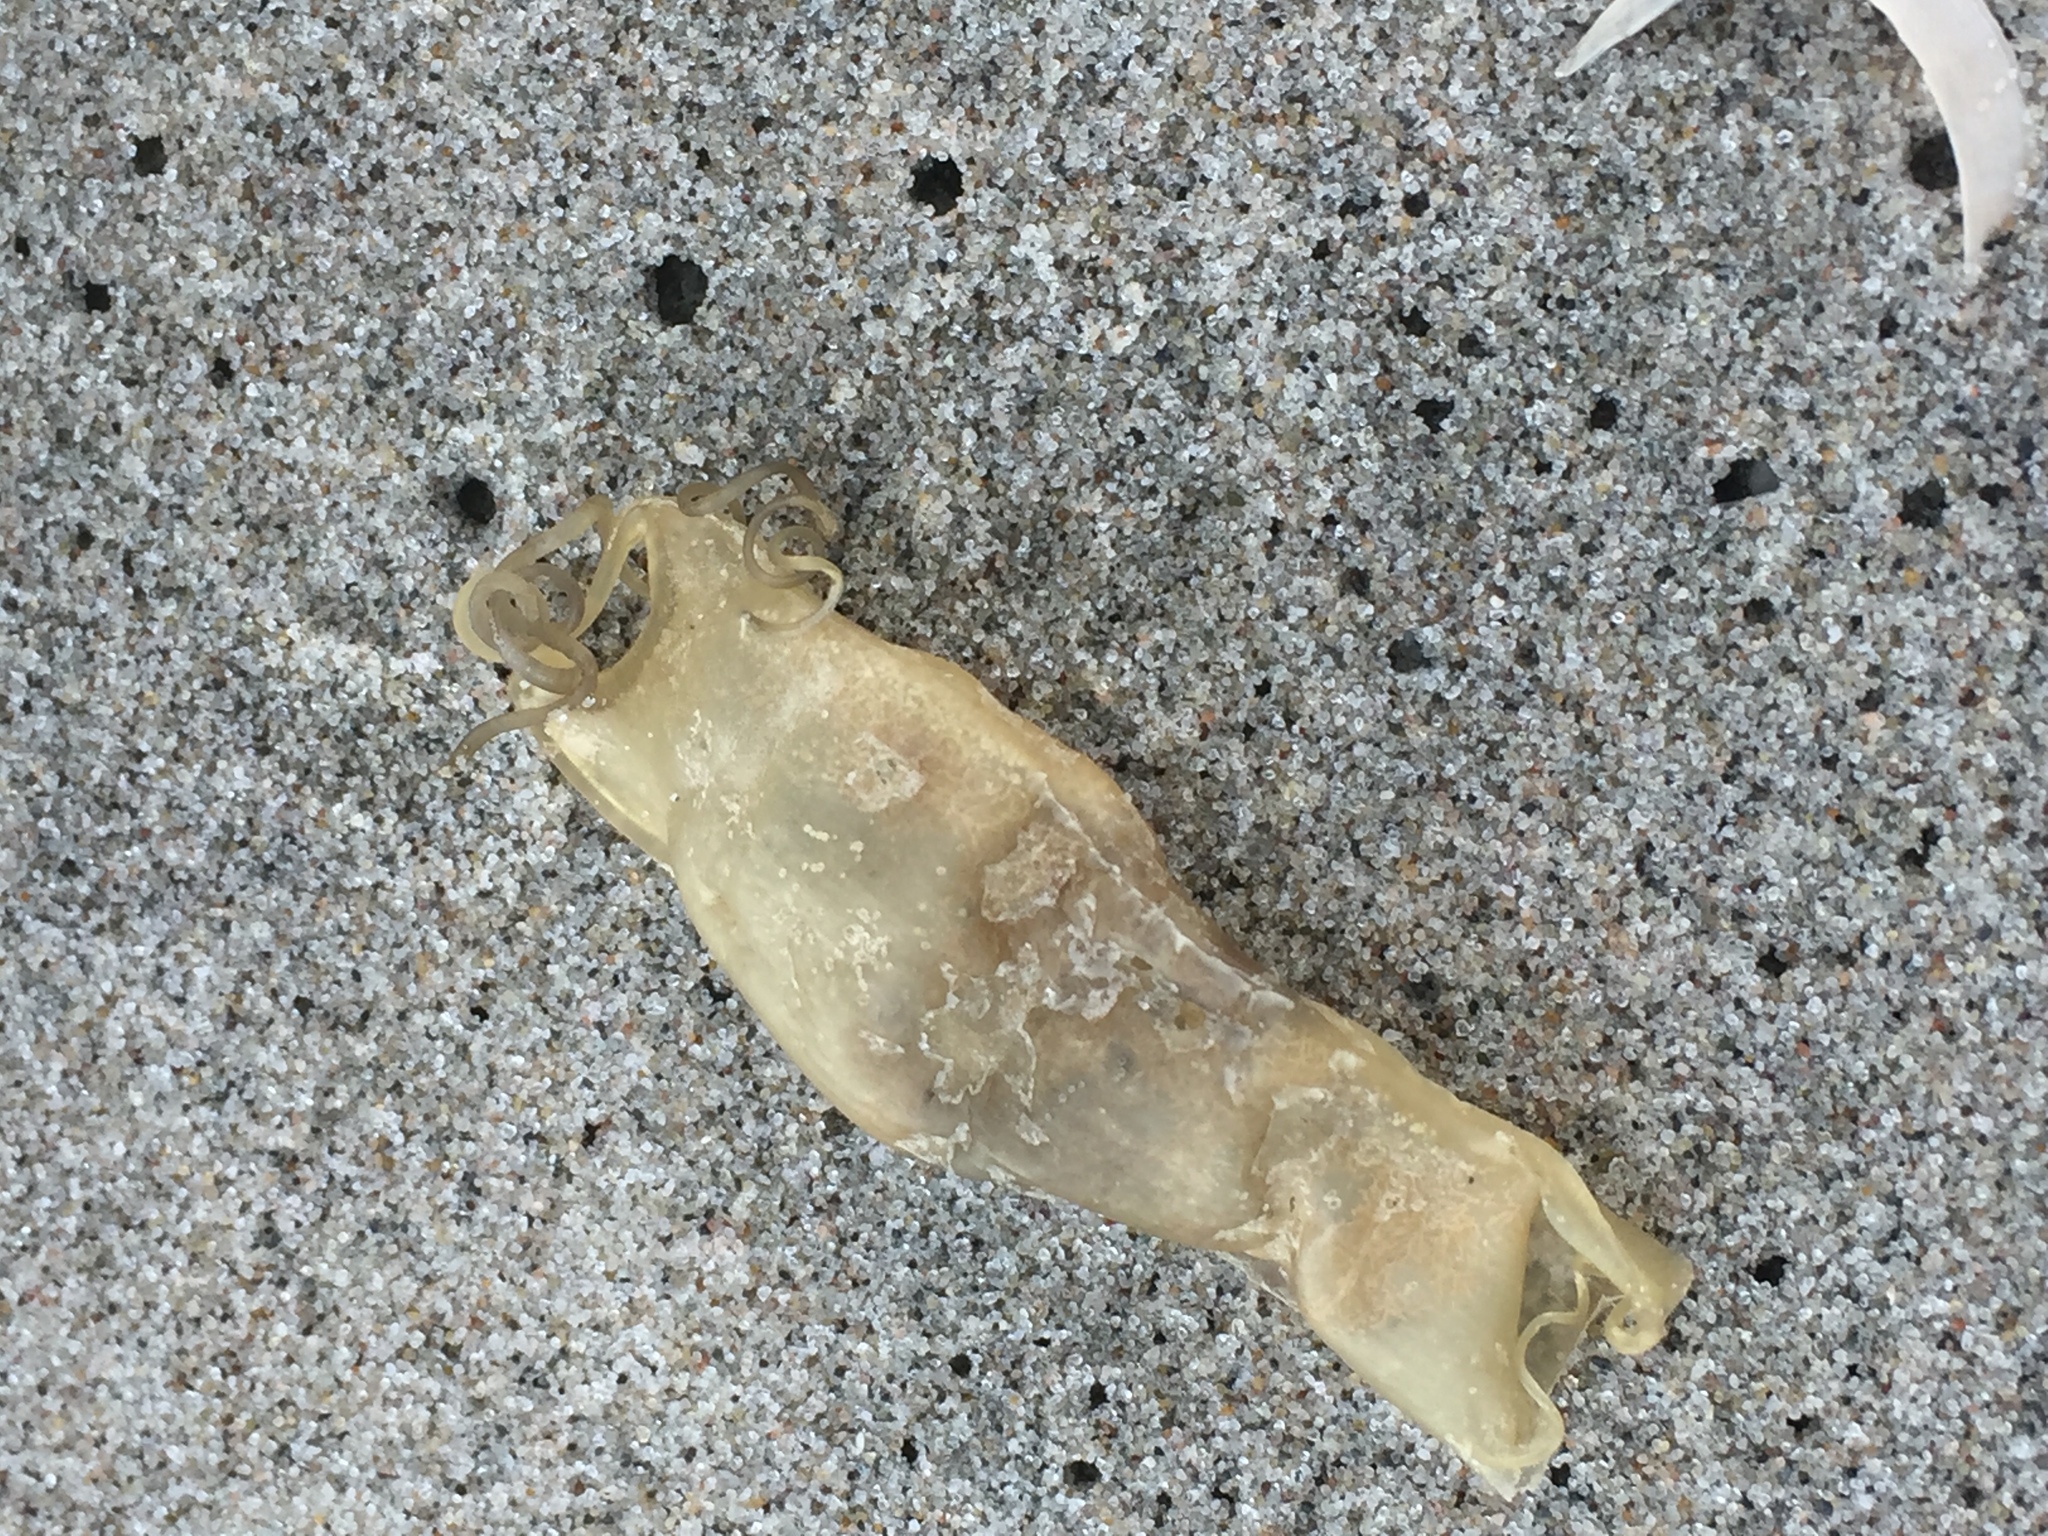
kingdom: Animalia
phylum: Chordata
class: Elasmobranchii
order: Carcharhiniformes
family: Scyliorhinidae
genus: Scyliorhinus
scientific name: Scyliorhinus canicula
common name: Lesser spotted dogfish
